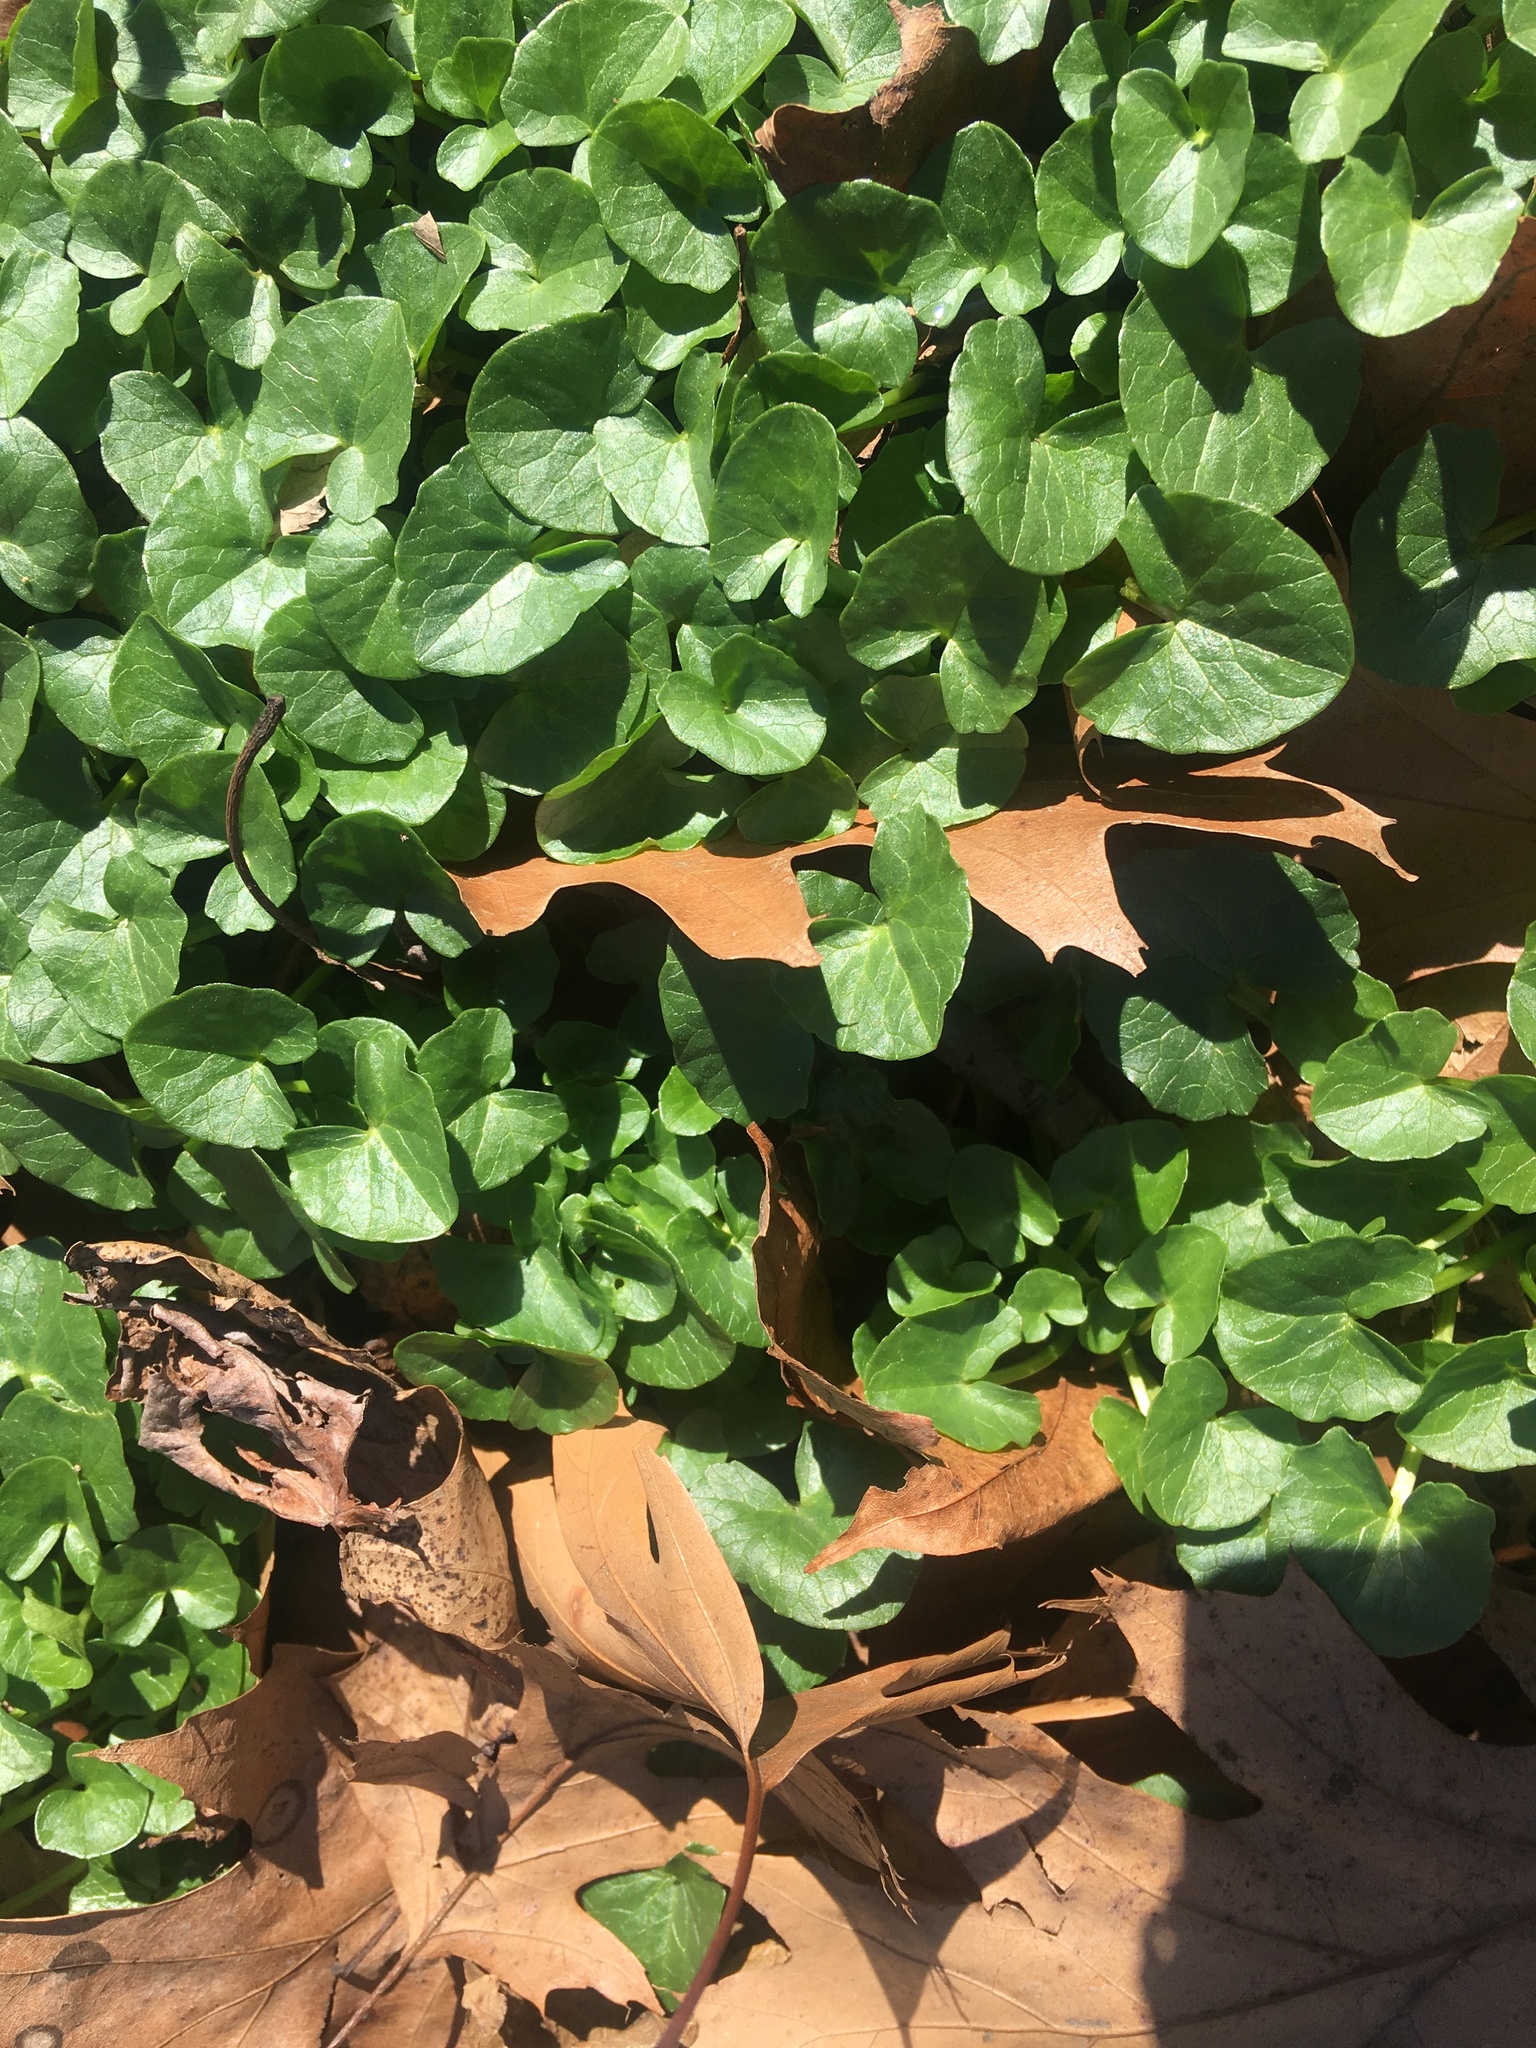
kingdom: Plantae
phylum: Tracheophyta
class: Magnoliopsida
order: Ranunculales
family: Ranunculaceae
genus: Ficaria
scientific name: Ficaria verna
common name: Lesser celandine
